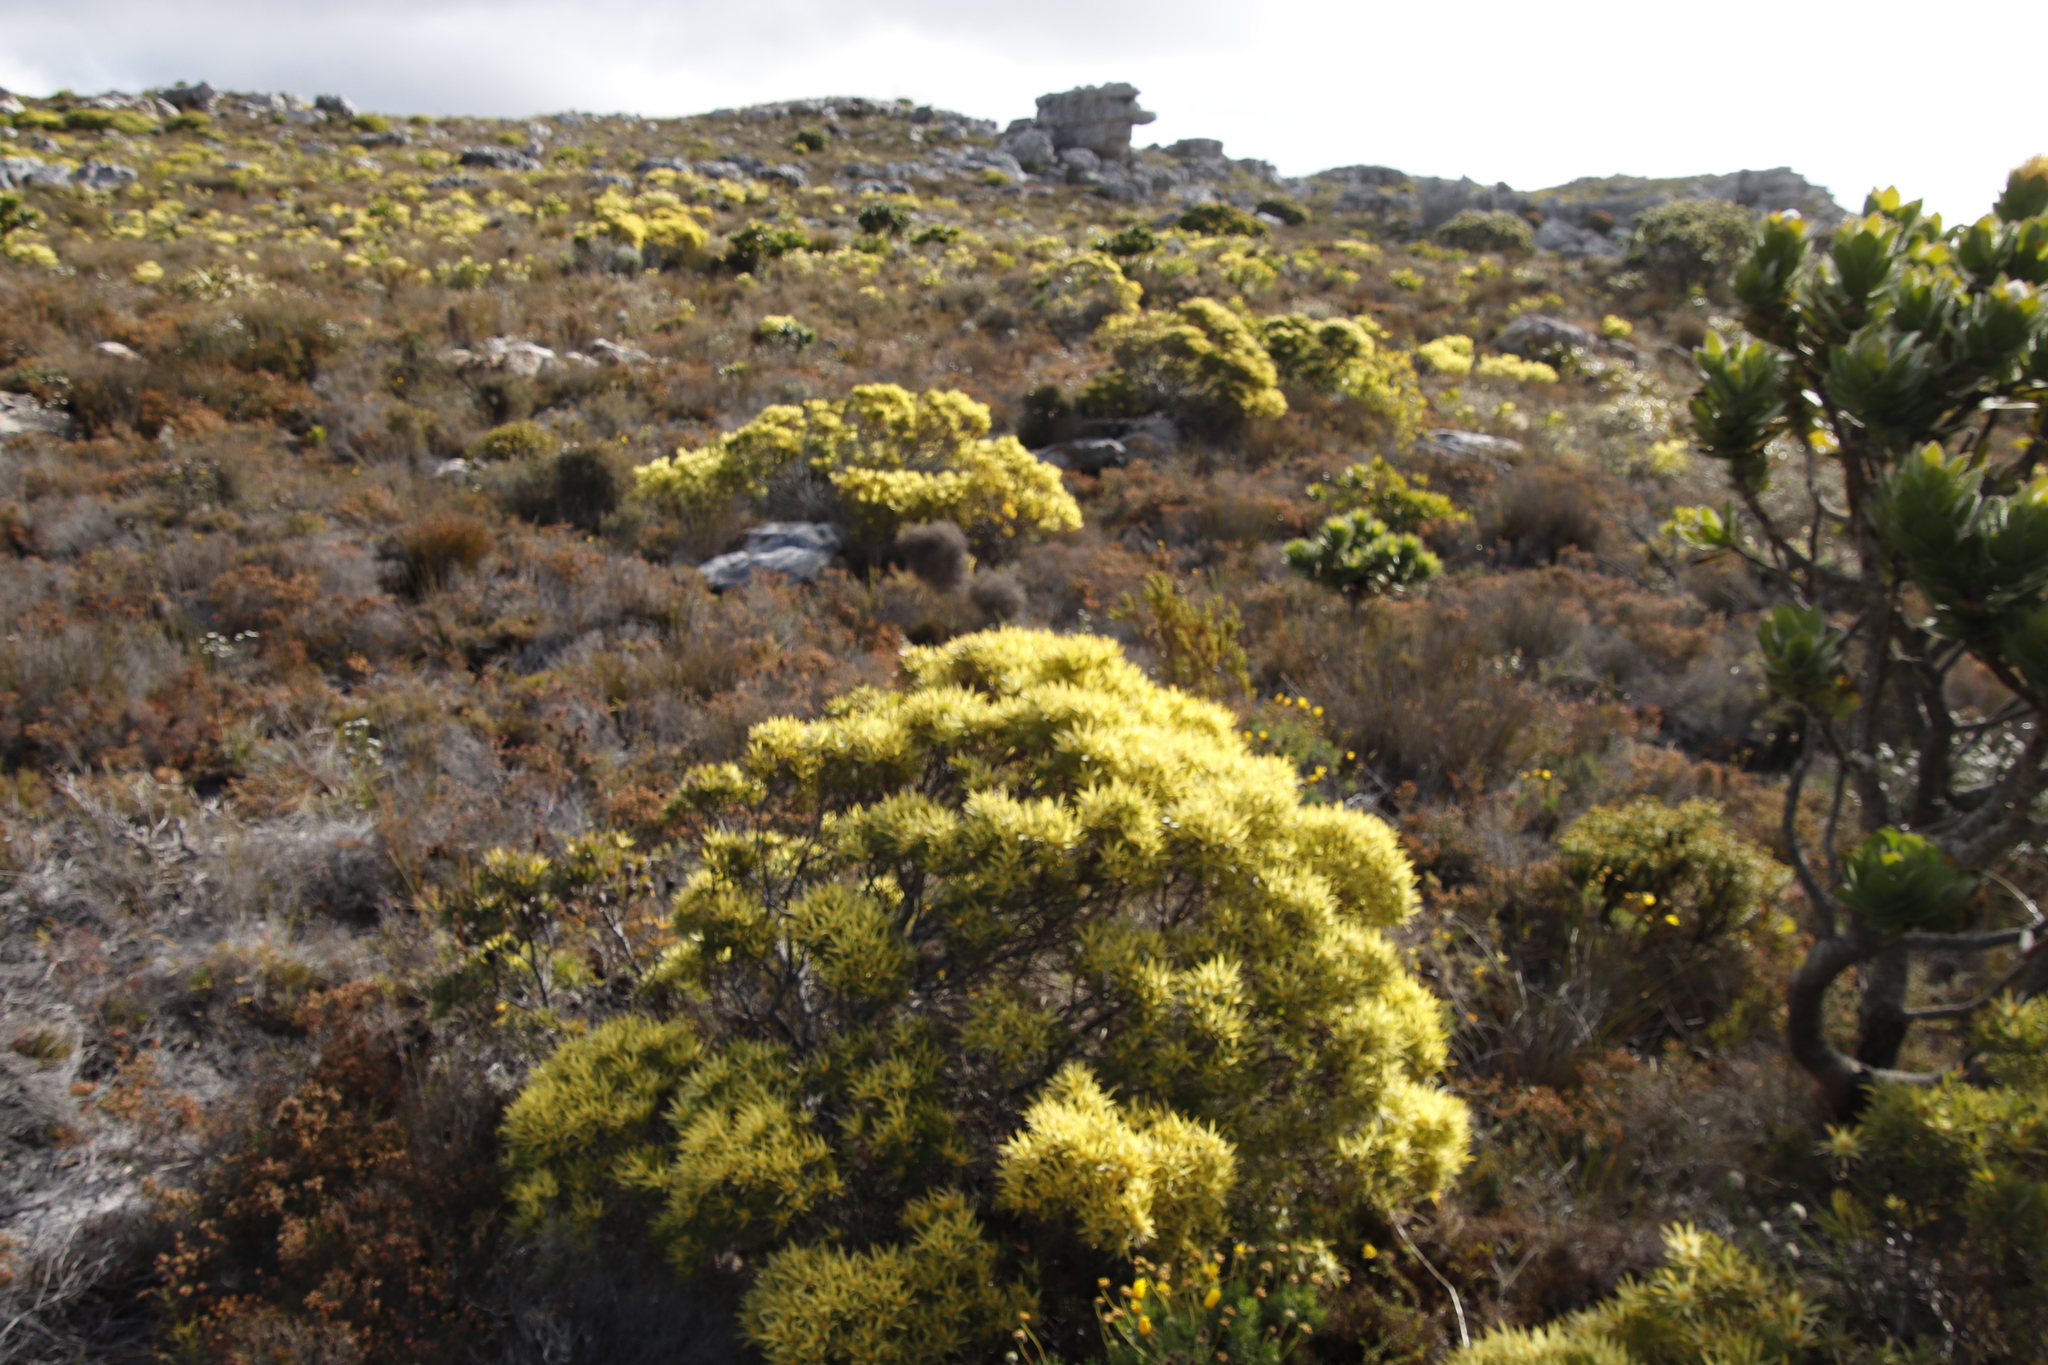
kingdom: Plantae
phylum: Tracheophyta
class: Magnoliopsida
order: Proteales
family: Proteaceae
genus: Leucadendron
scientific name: Leucadendron xanthoconus
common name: Sickle-leaf conebush
